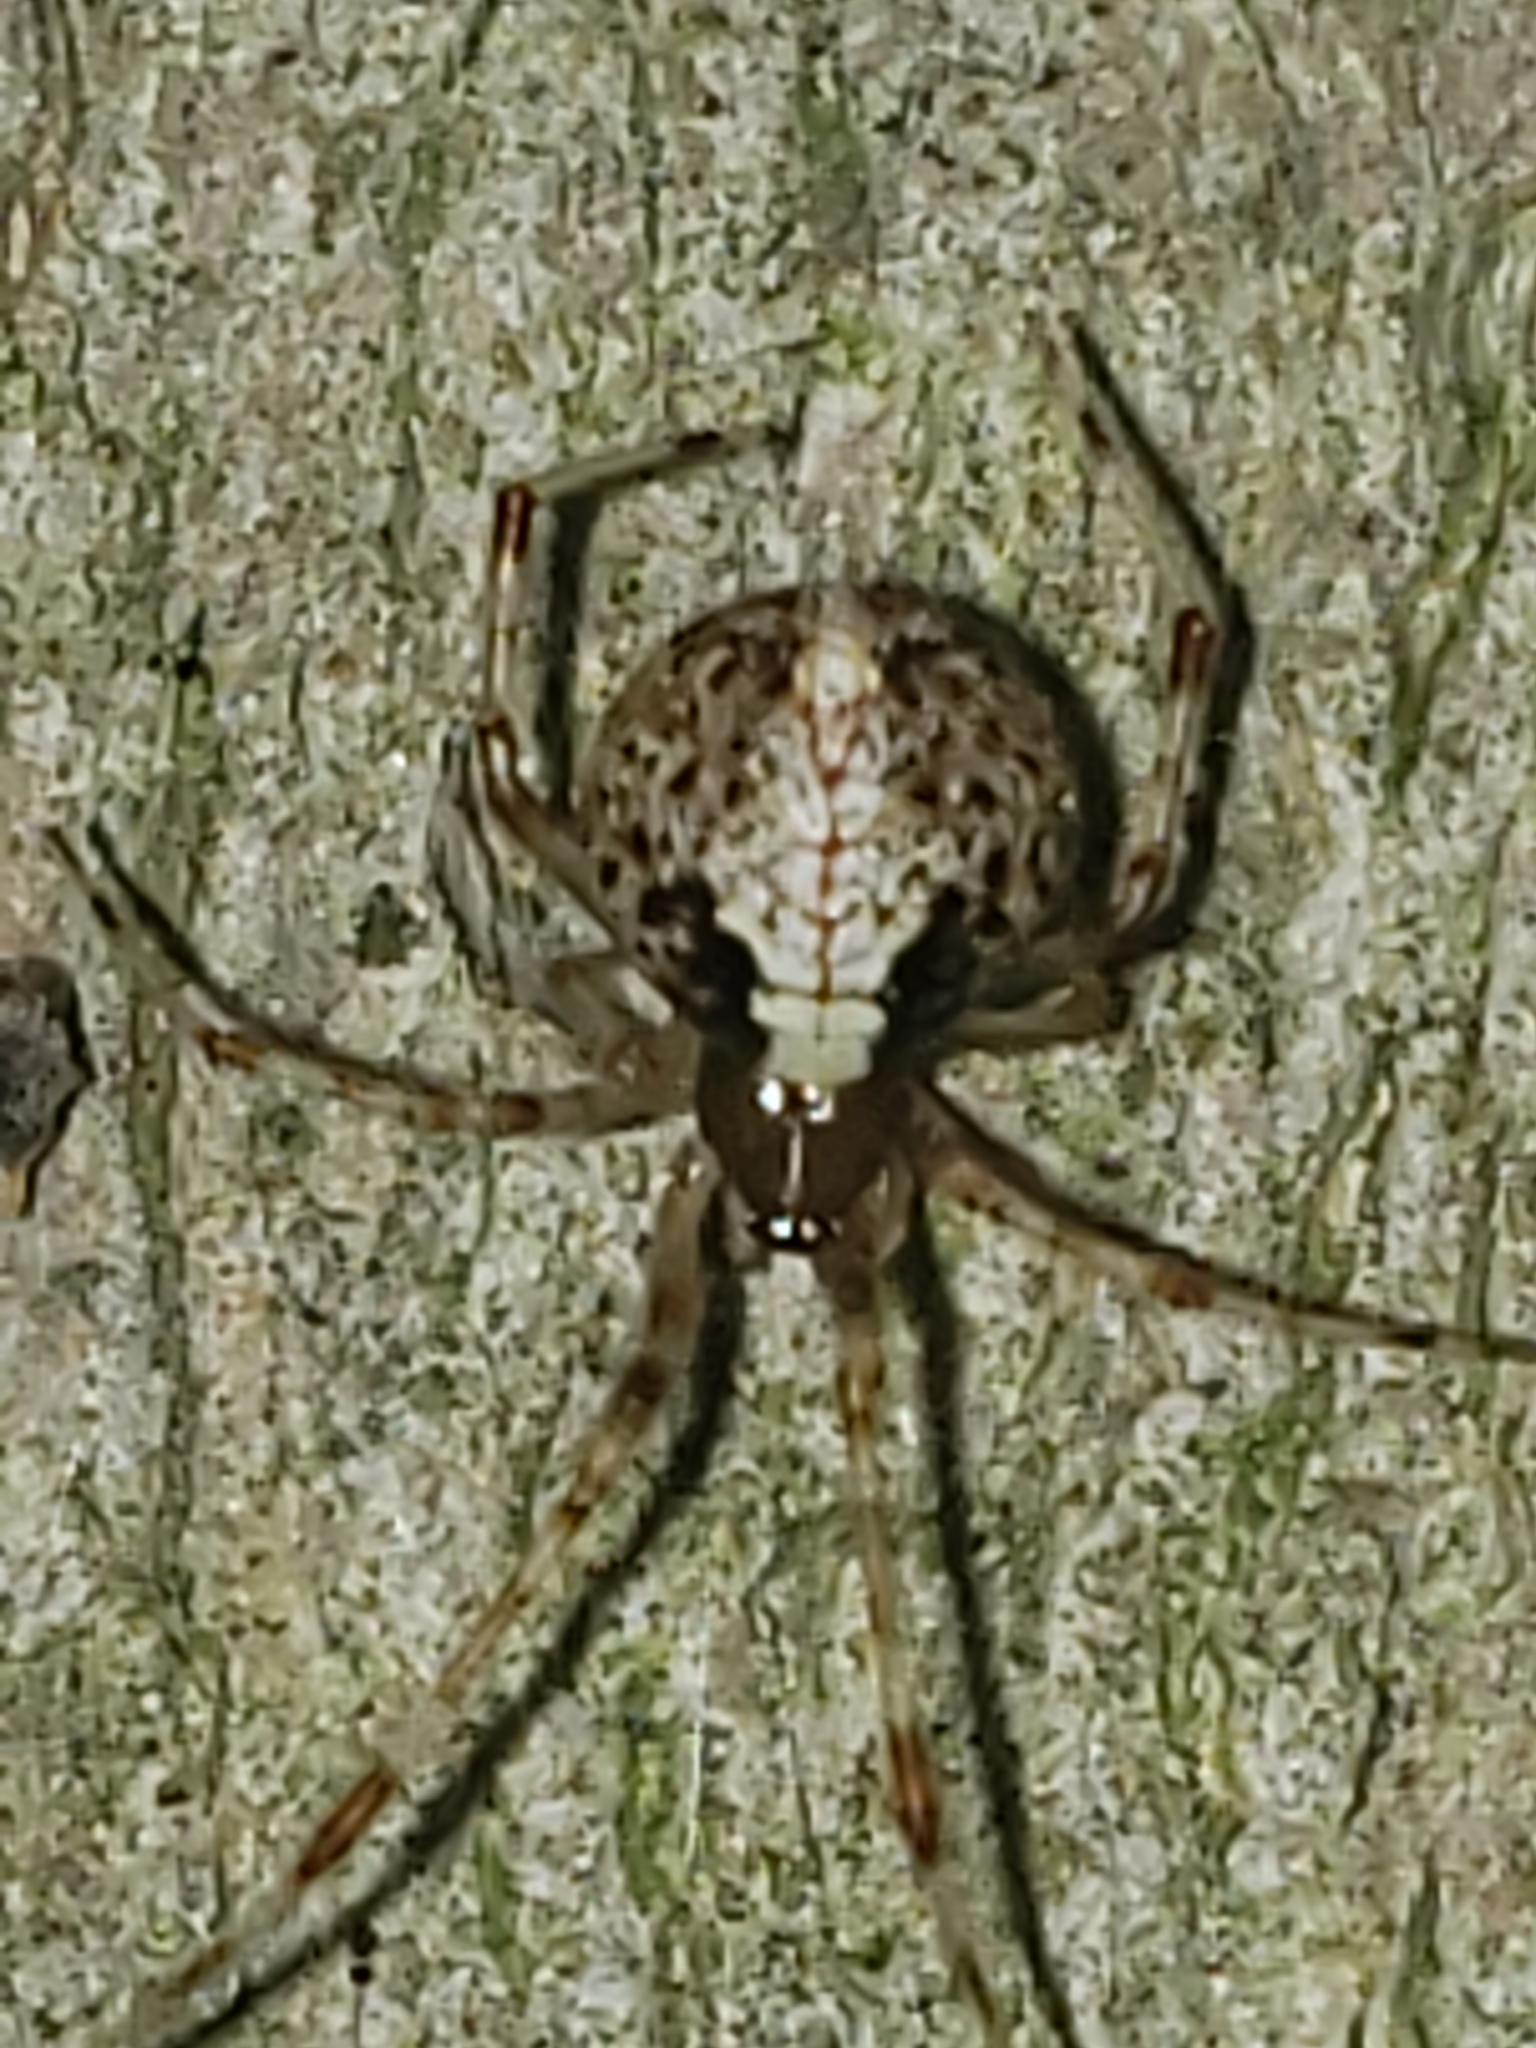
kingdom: Animalia
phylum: Arthropoda
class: Arachnida
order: Araneae
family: Theridiidae
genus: Yunohamella
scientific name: Yunohamella lyrica
